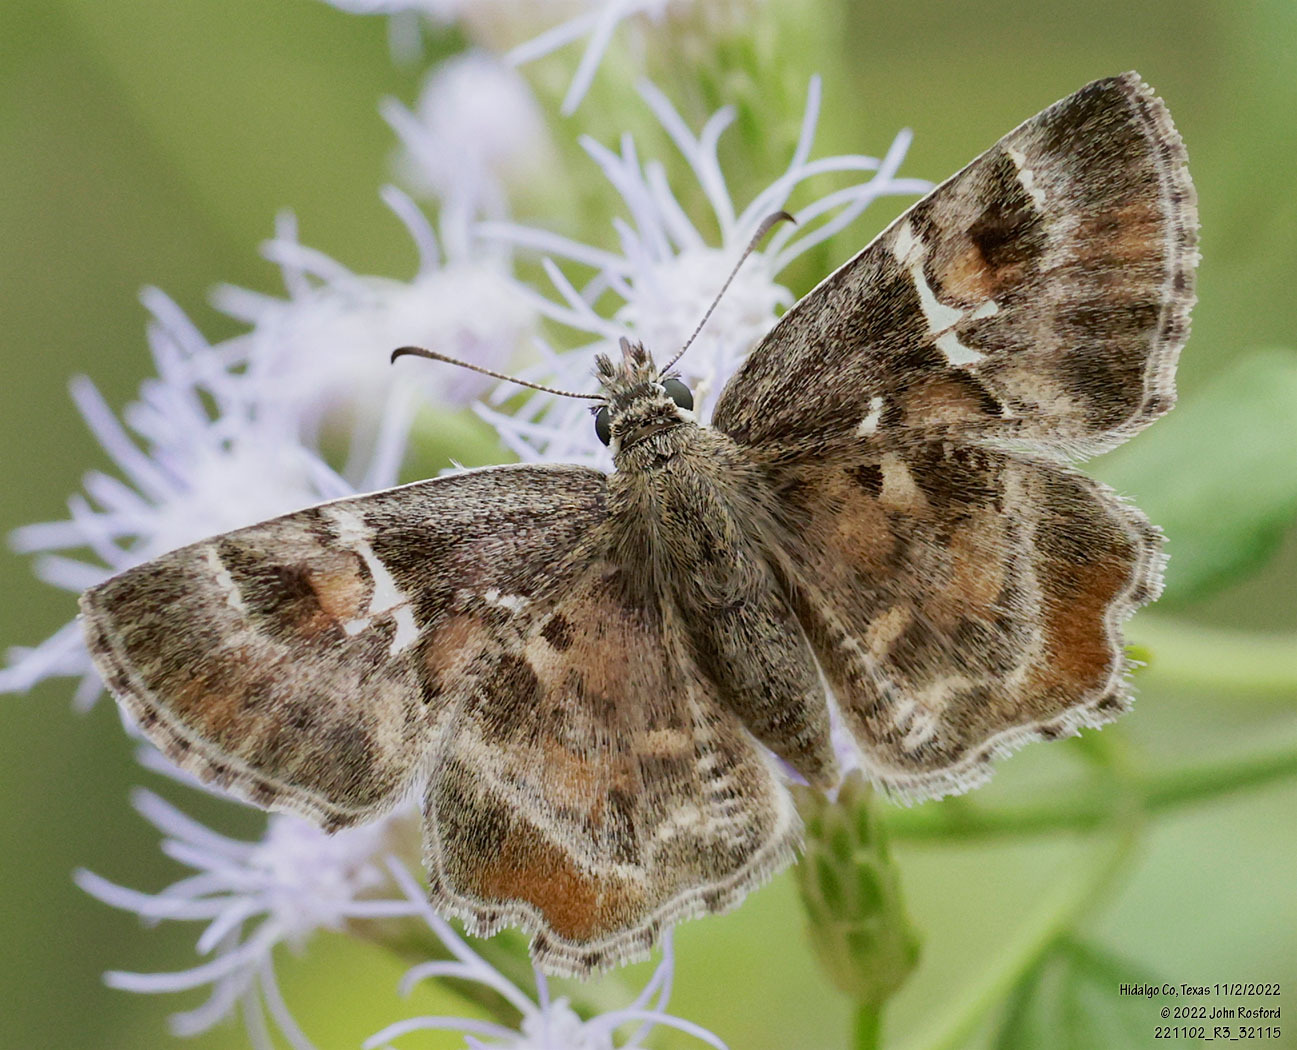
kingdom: Animalia
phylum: Arthropoda
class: Insecta
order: Lepidoptera
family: Hesperiidae
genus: Systasea
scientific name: Systasea pulverulenta
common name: Texas powdered skipper
